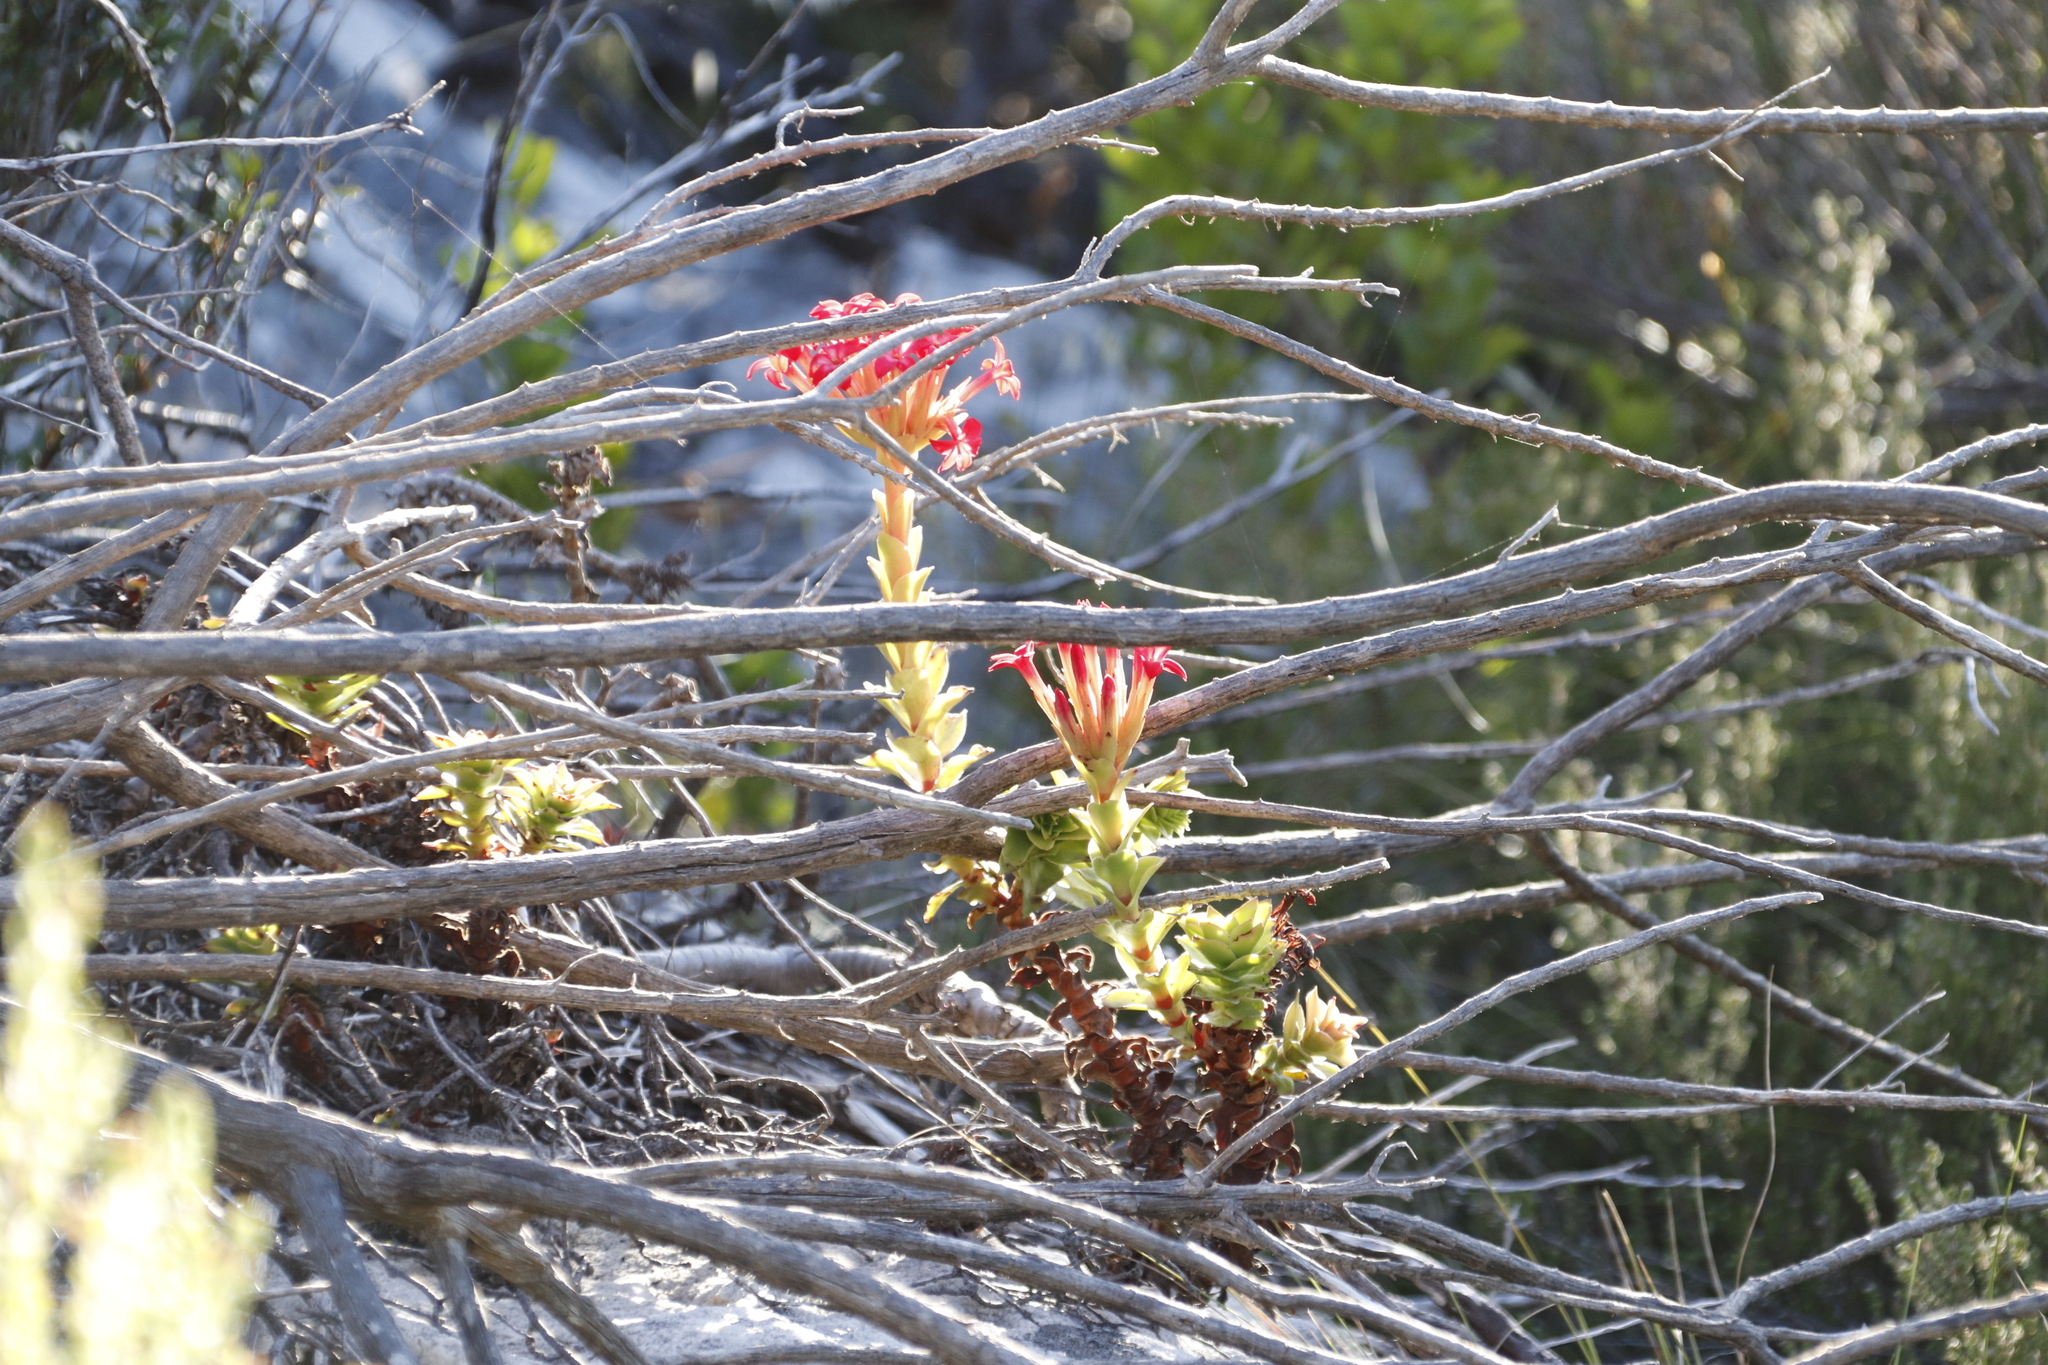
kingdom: Plantae
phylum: Tracheophyta
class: Magnoliopsida
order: Saxifragales
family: Crassulaceae
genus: Crassula
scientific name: Crassula coccinea
